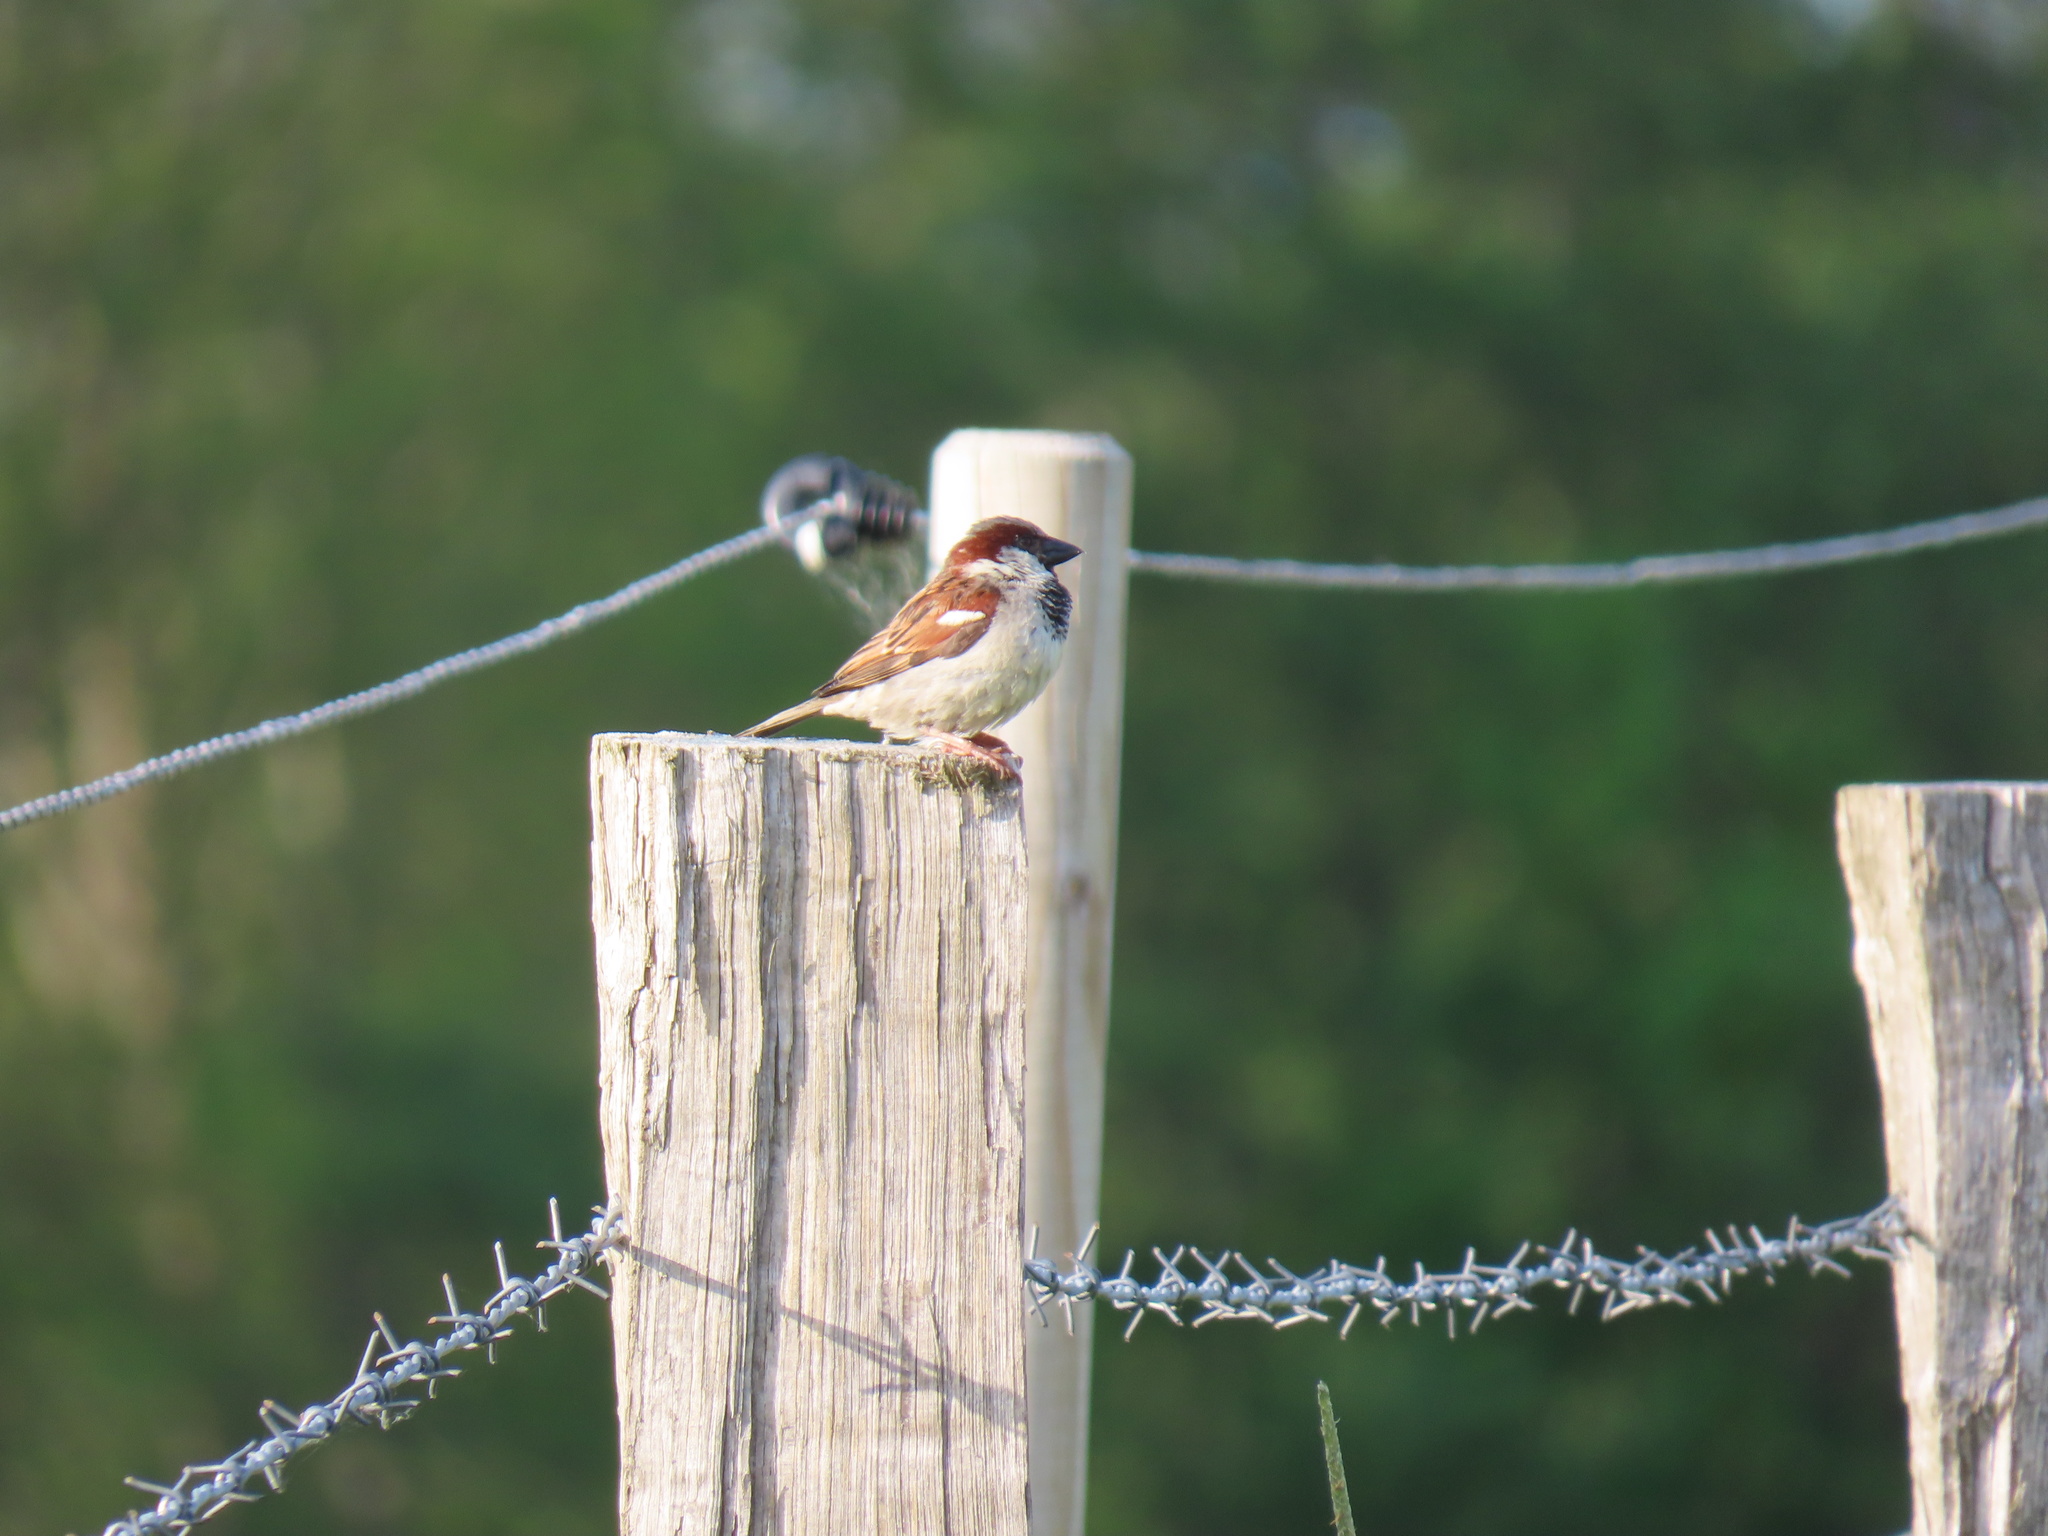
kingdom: Animalia
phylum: Chordata
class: Aves
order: Passeriformes
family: Passeridae
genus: Passer
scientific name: Passer domesticus
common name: House sparrow
